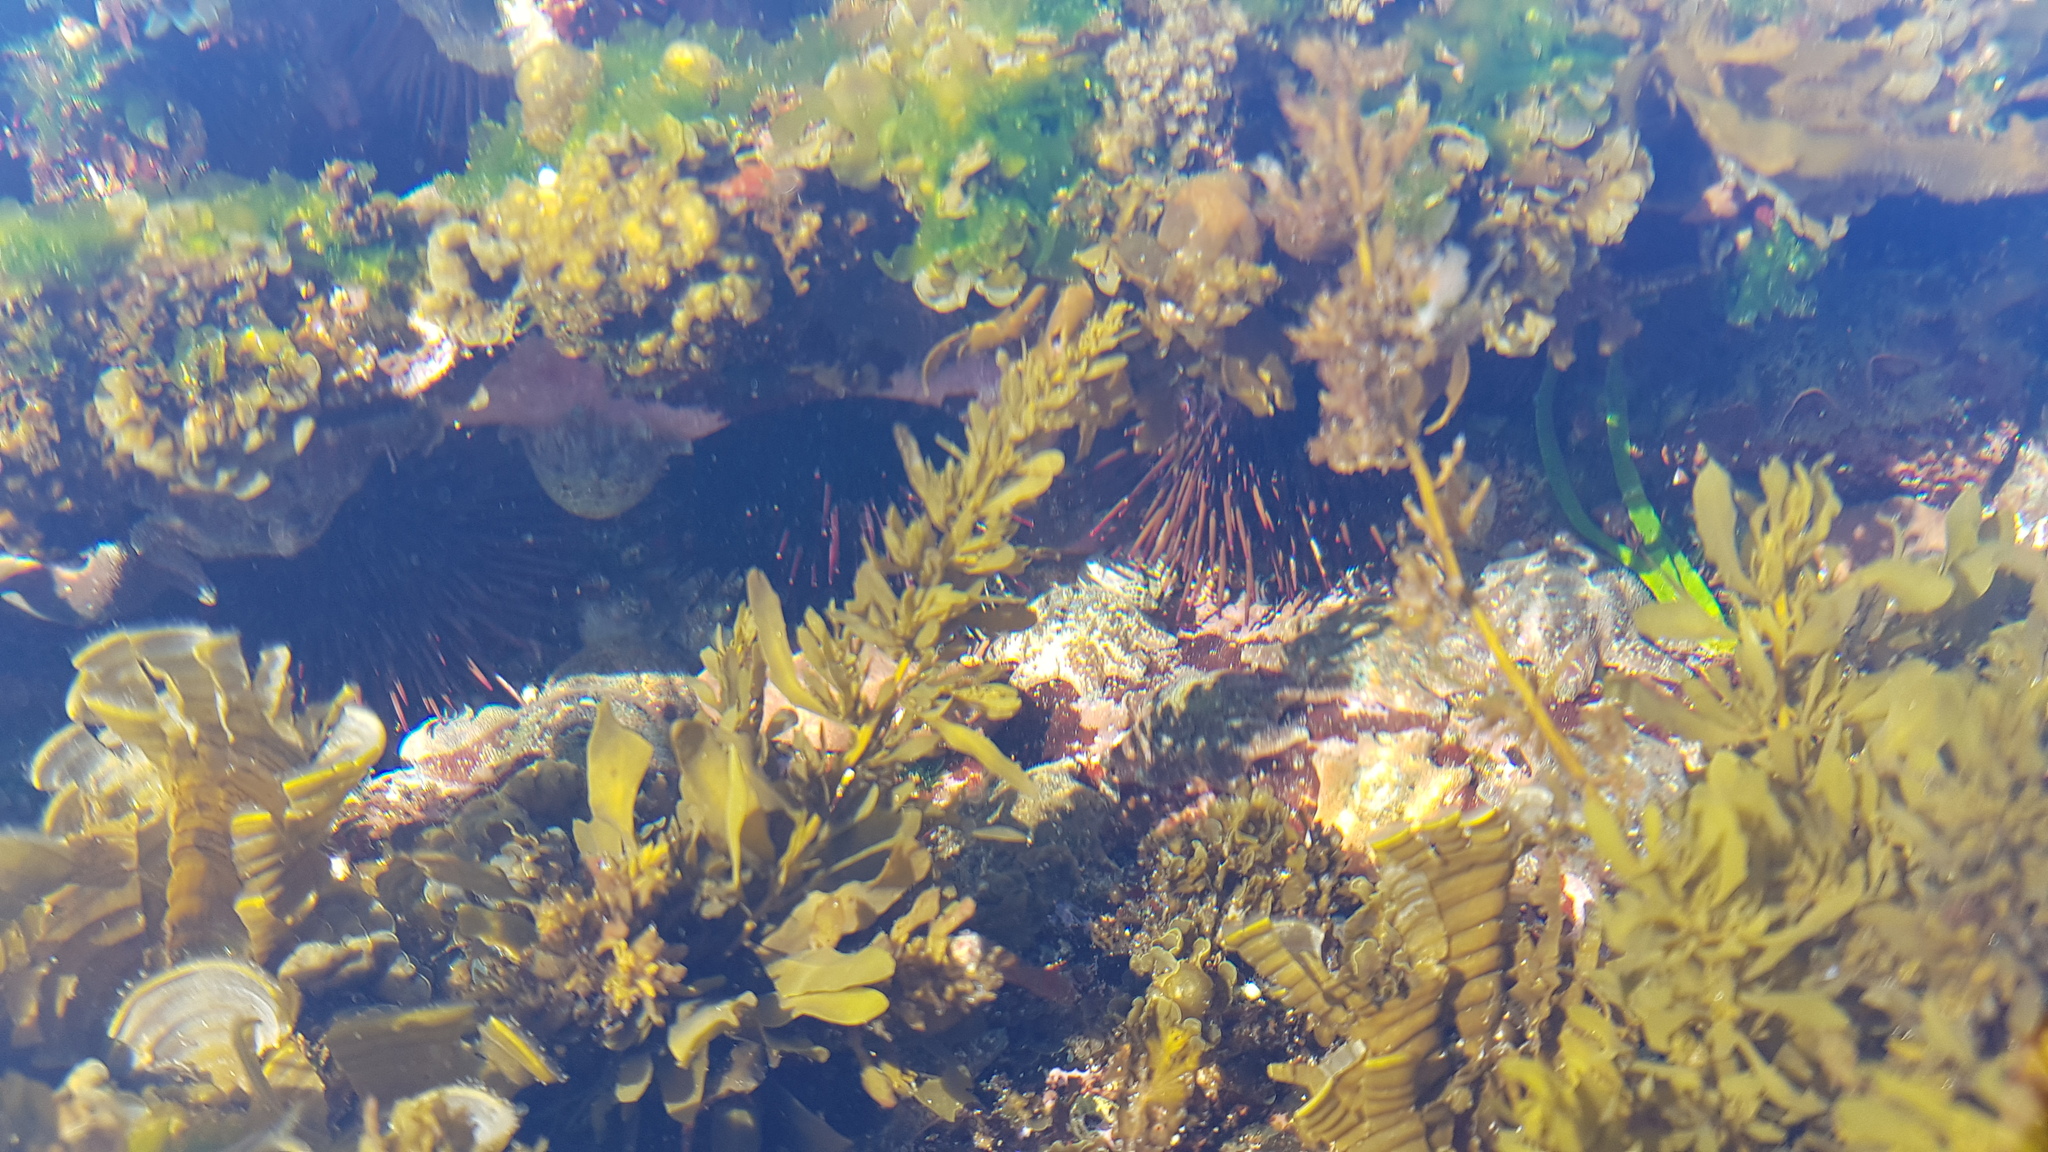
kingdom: Animalia
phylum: Echinodermata
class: Echinoidea
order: Camarodonta
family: Echinometridae
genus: Heliocidaris
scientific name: Heliocidaris erythrogramma
